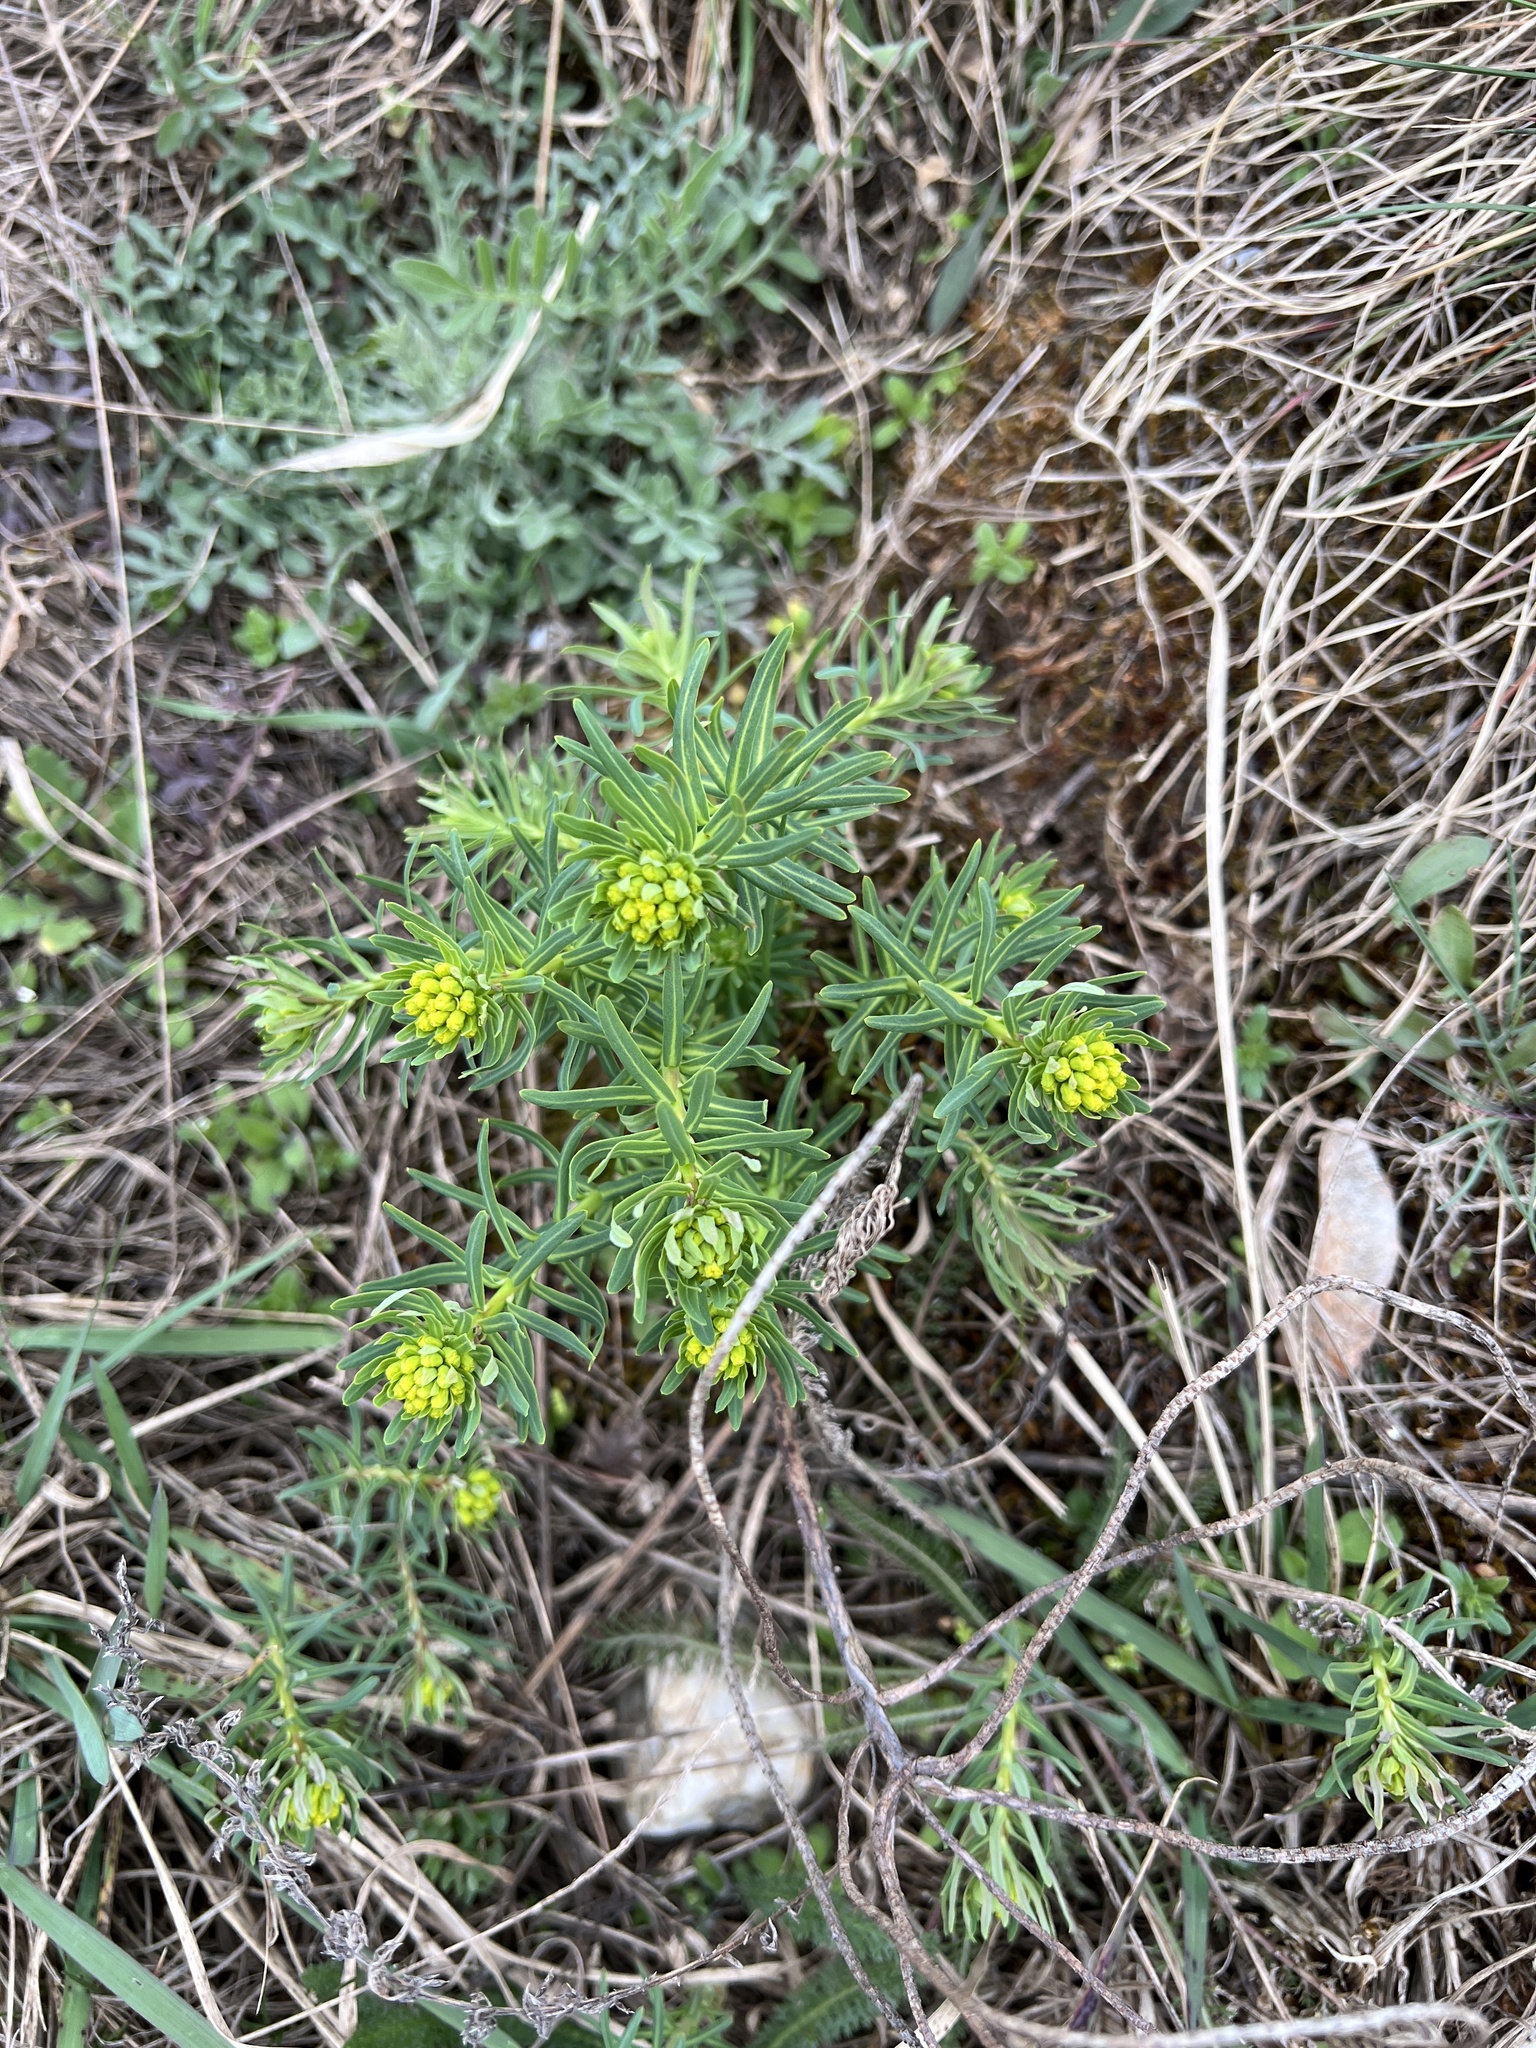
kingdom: Plantae
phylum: Tracheophyta
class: Magnoliopsida
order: Malpighiales
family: Euphorbiaceae
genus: Euphorbia
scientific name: Euphorbia cyparissias
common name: Cypress spurge
